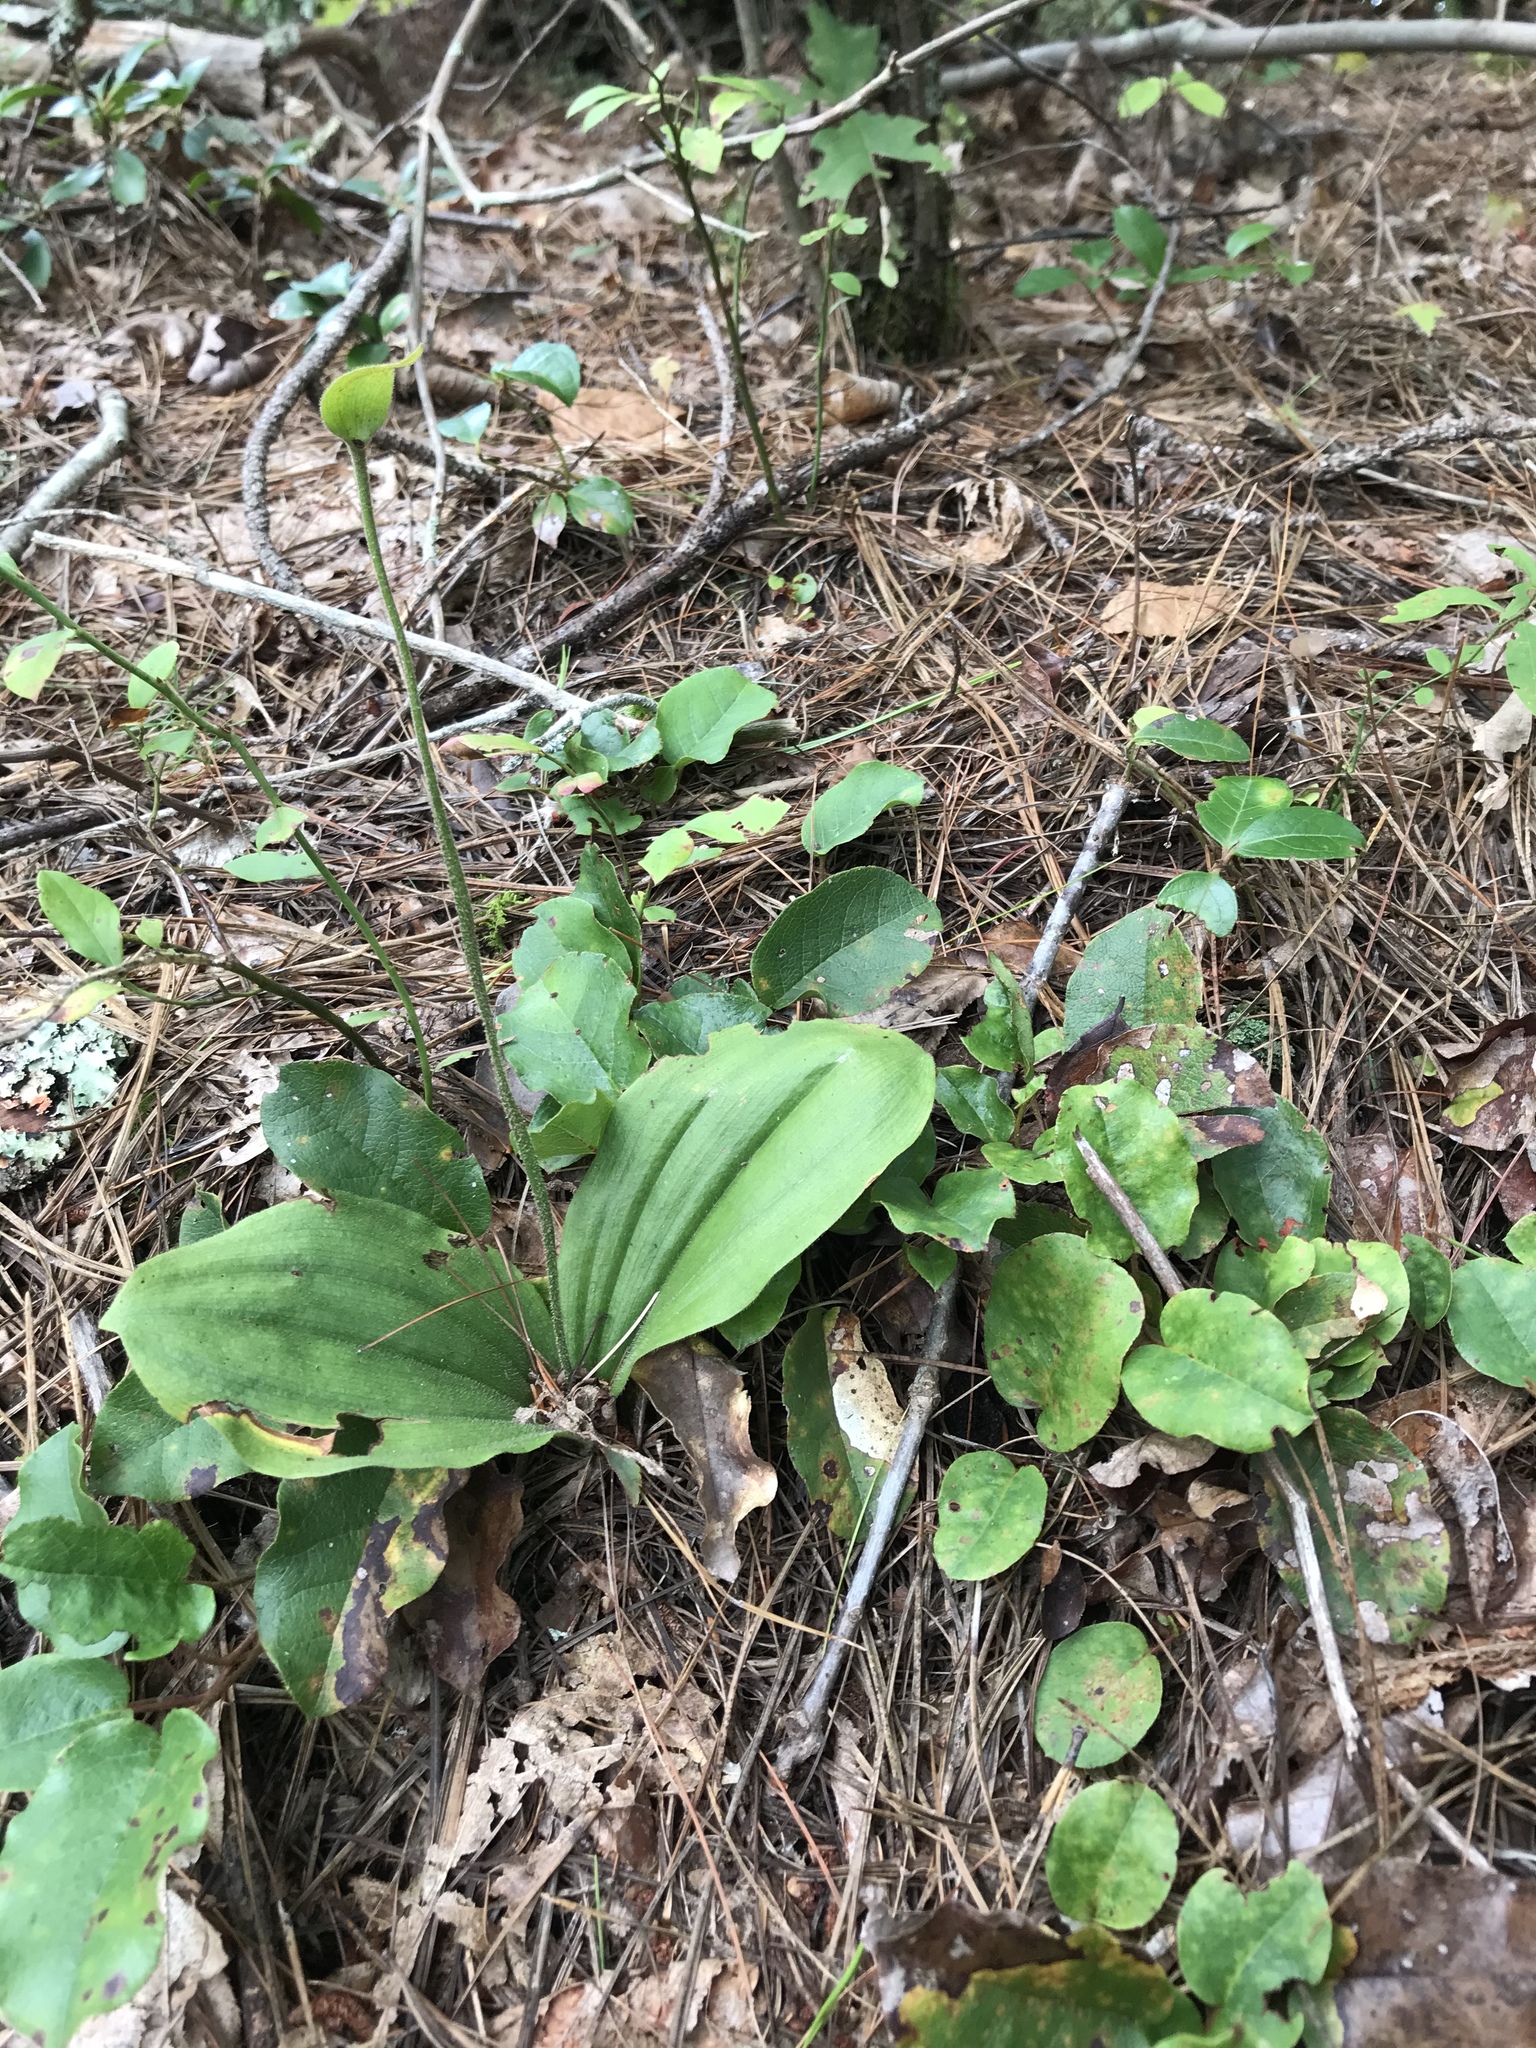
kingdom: Plantae
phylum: Tracheophyta
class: Liliopsida
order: Asparagales
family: Orchidaceae
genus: Cypripedium
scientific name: Cypripedium acaule
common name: Pink lady's-slipper
